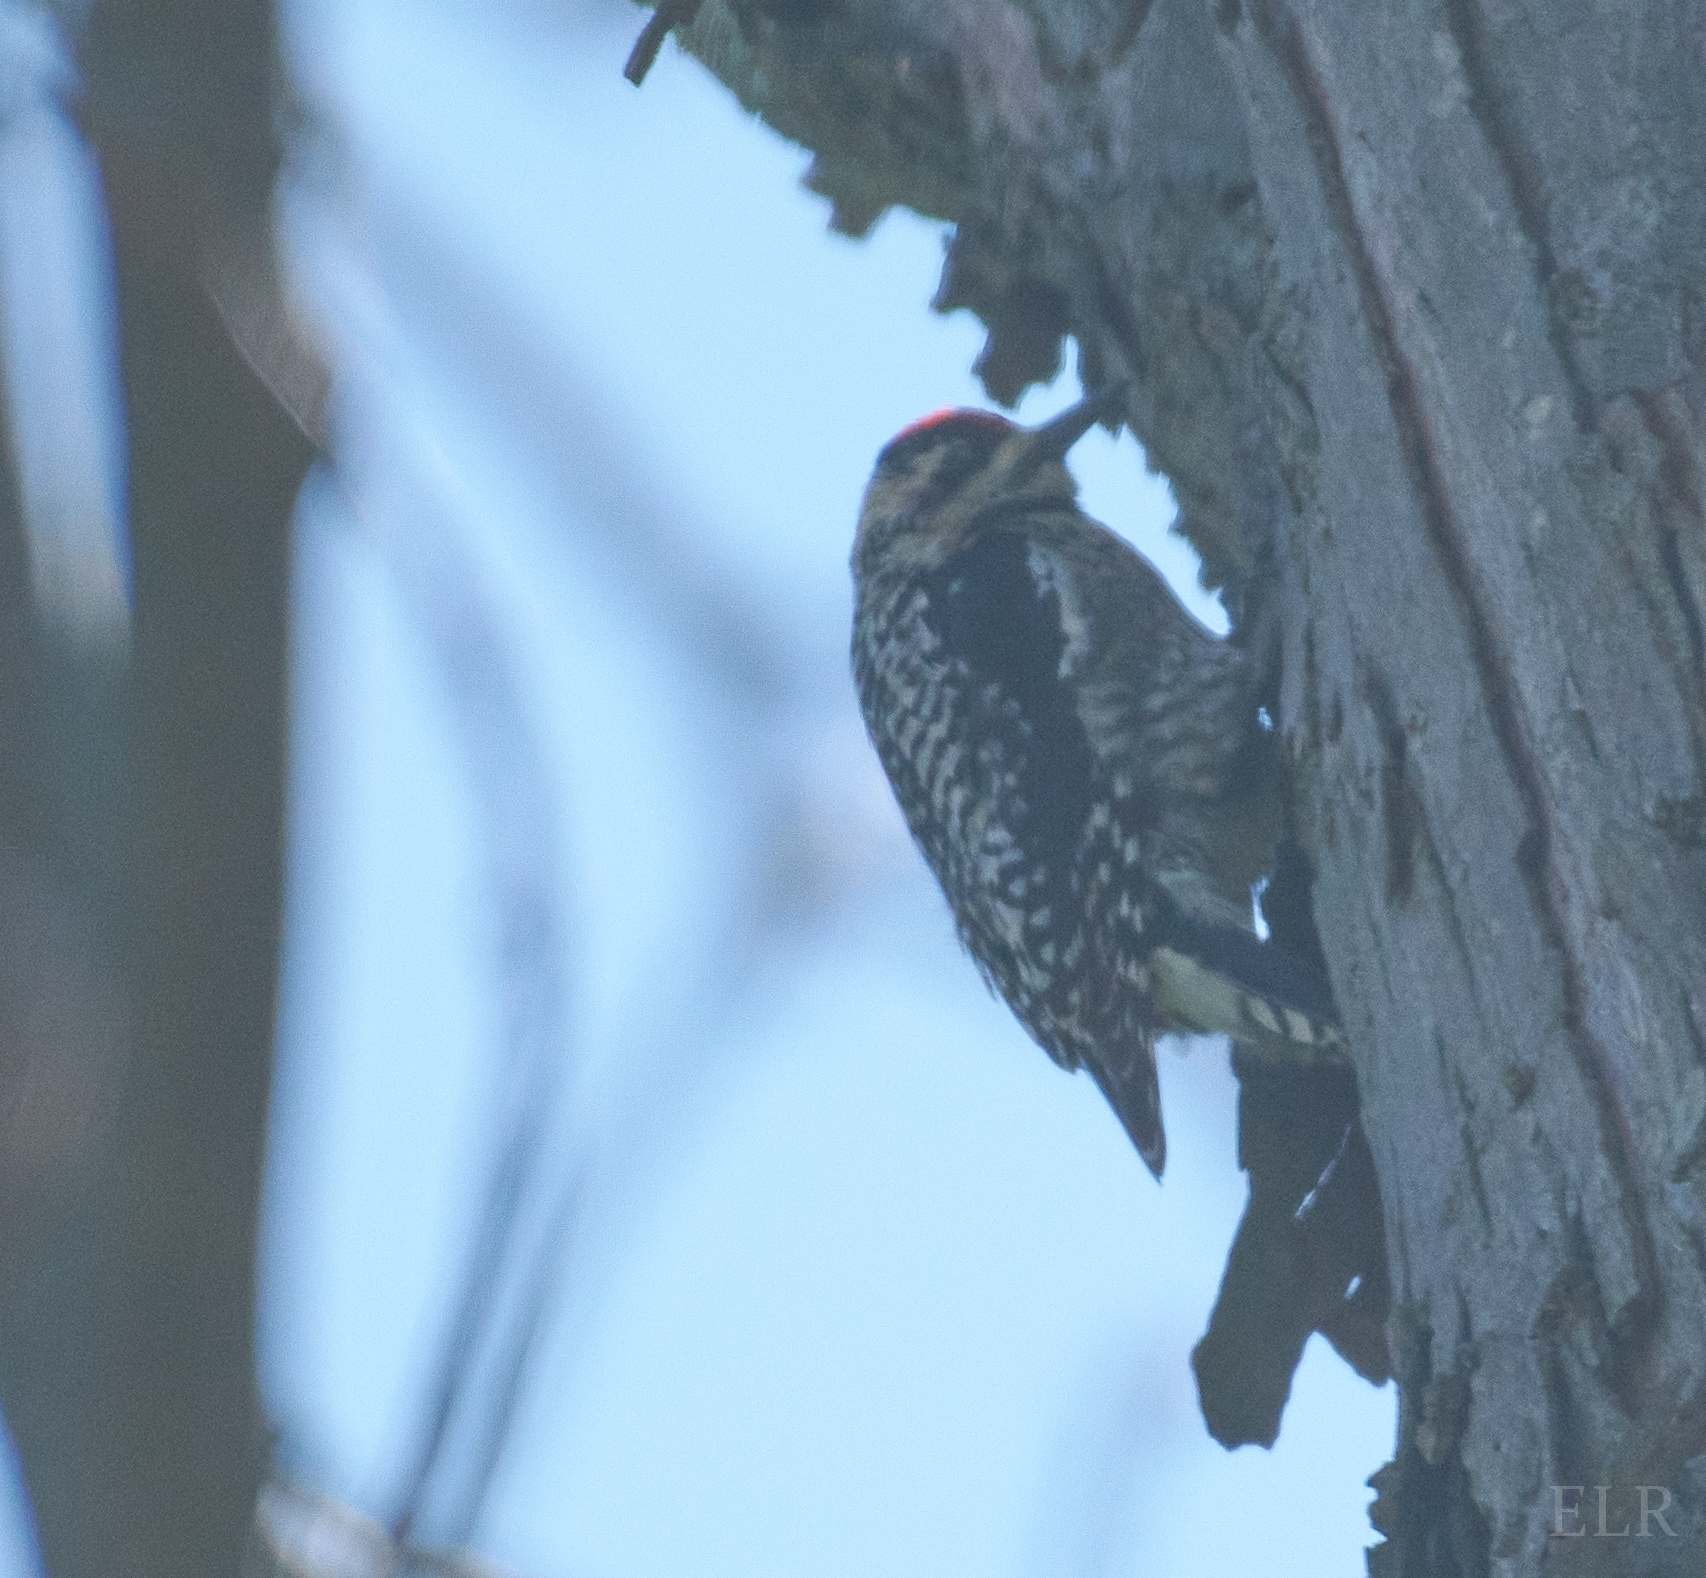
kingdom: Animalia
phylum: Chordata
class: Aves
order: Piciformes
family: Picidae
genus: Sphyrapicus
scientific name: Sphyrapicus varius
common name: Yellow-bellied sapsucker
